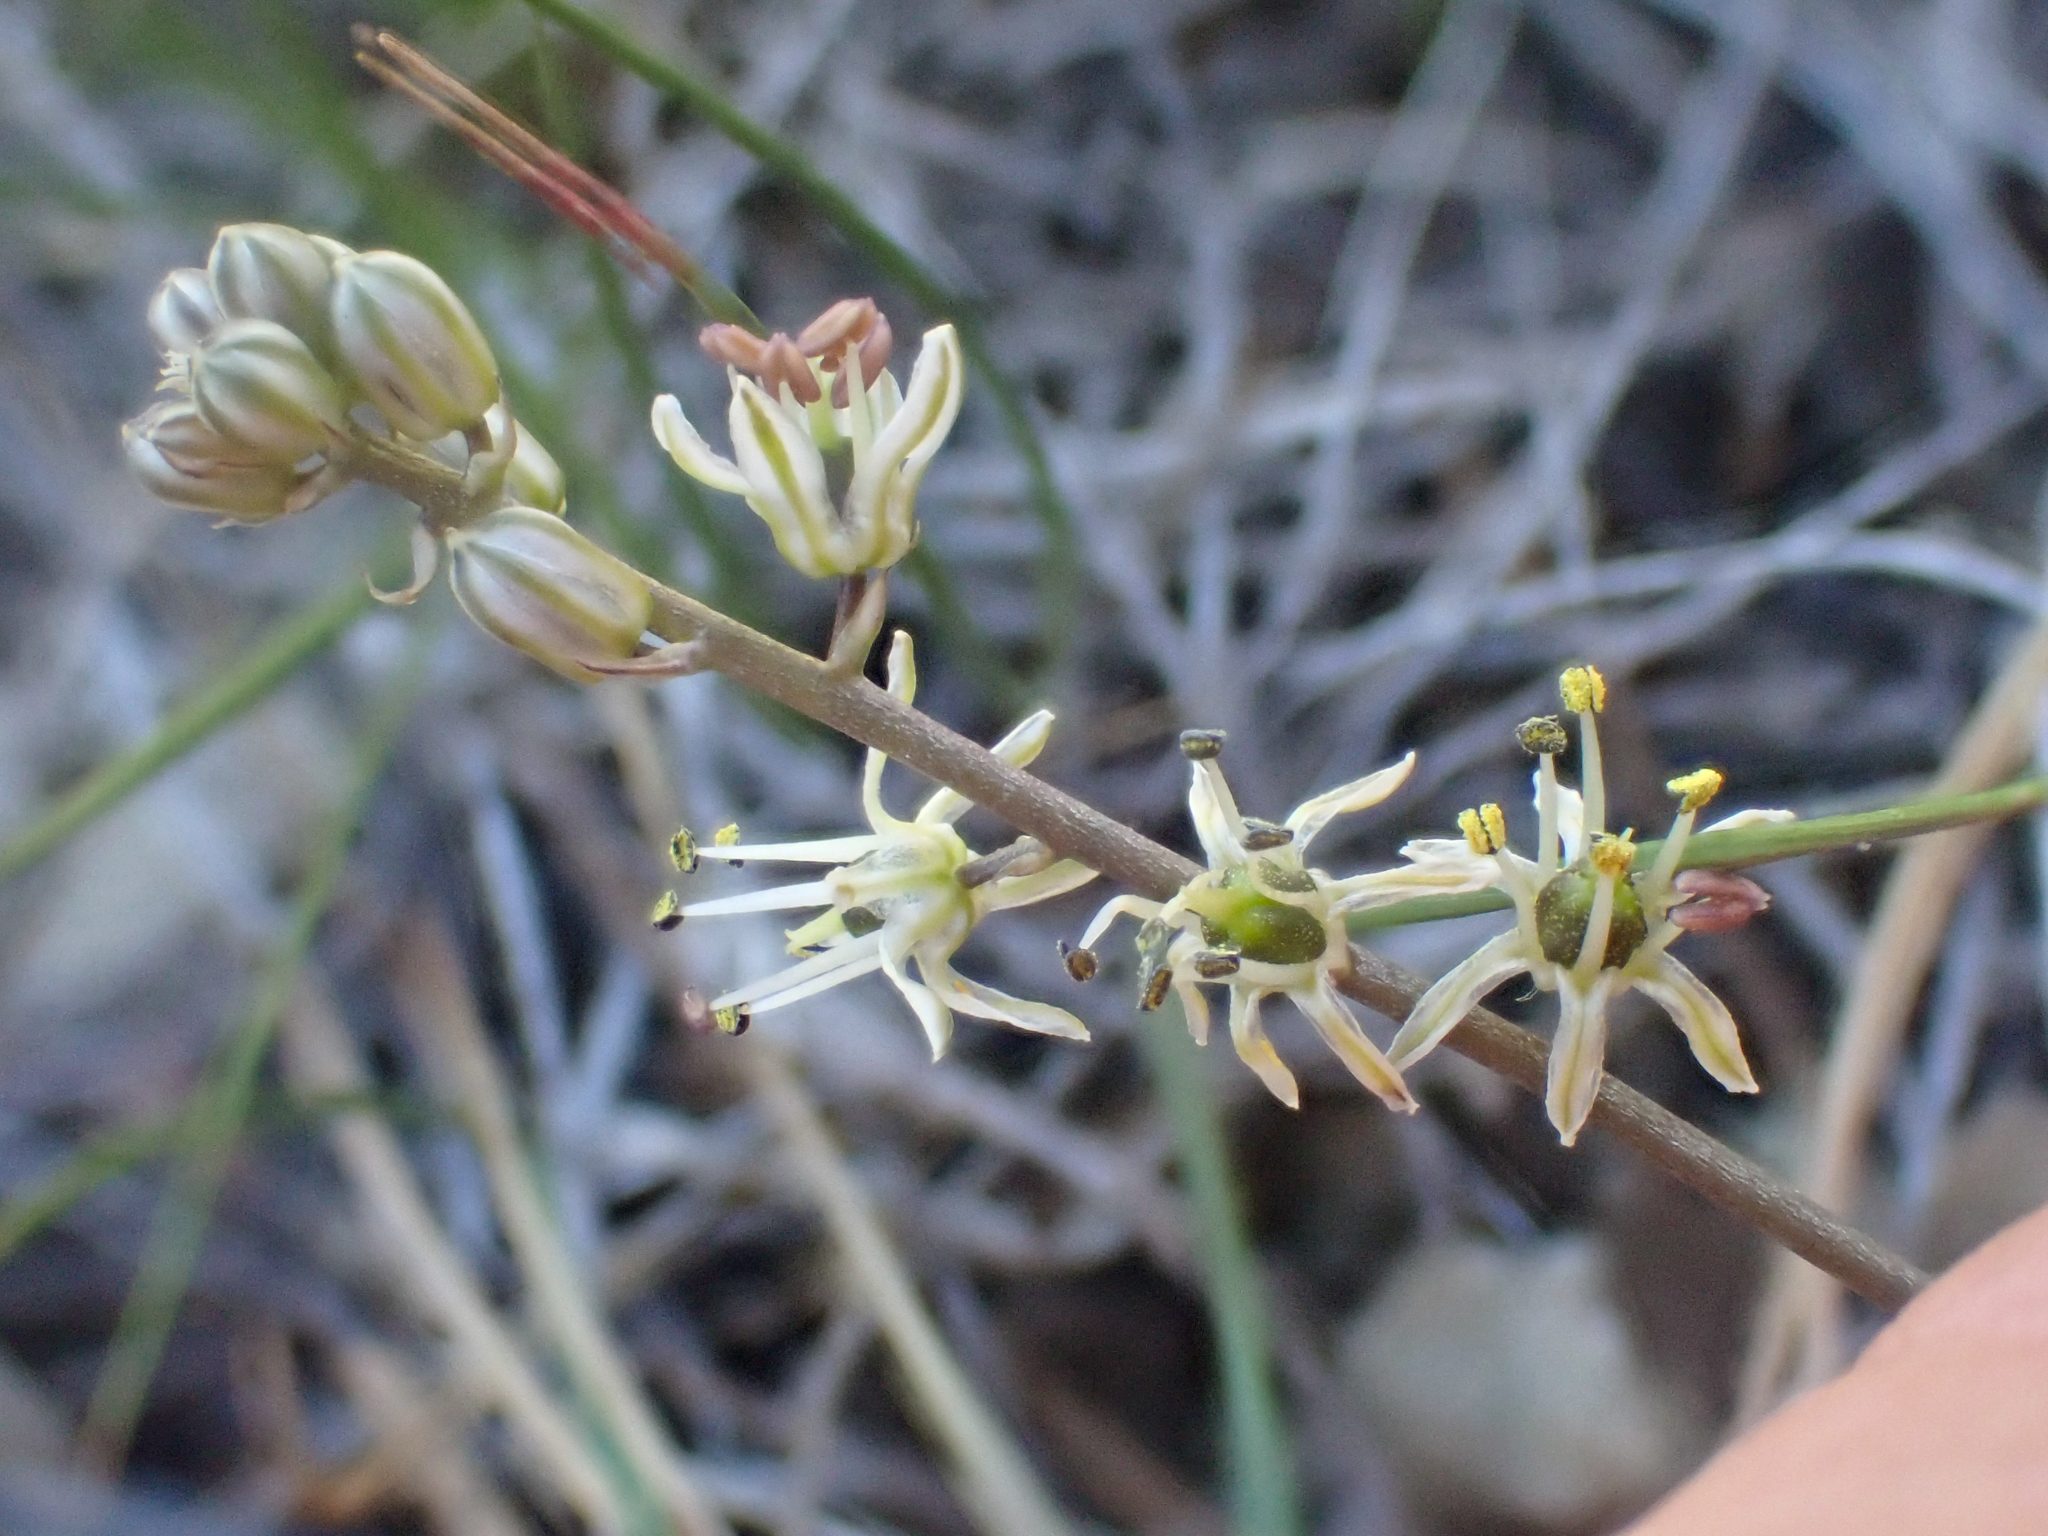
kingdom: Plantae
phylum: Tracheophyta
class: Liliopsida
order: Asparagales
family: Asparagaceae
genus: Hastingsia
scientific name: Hastingsia serpentinicola
